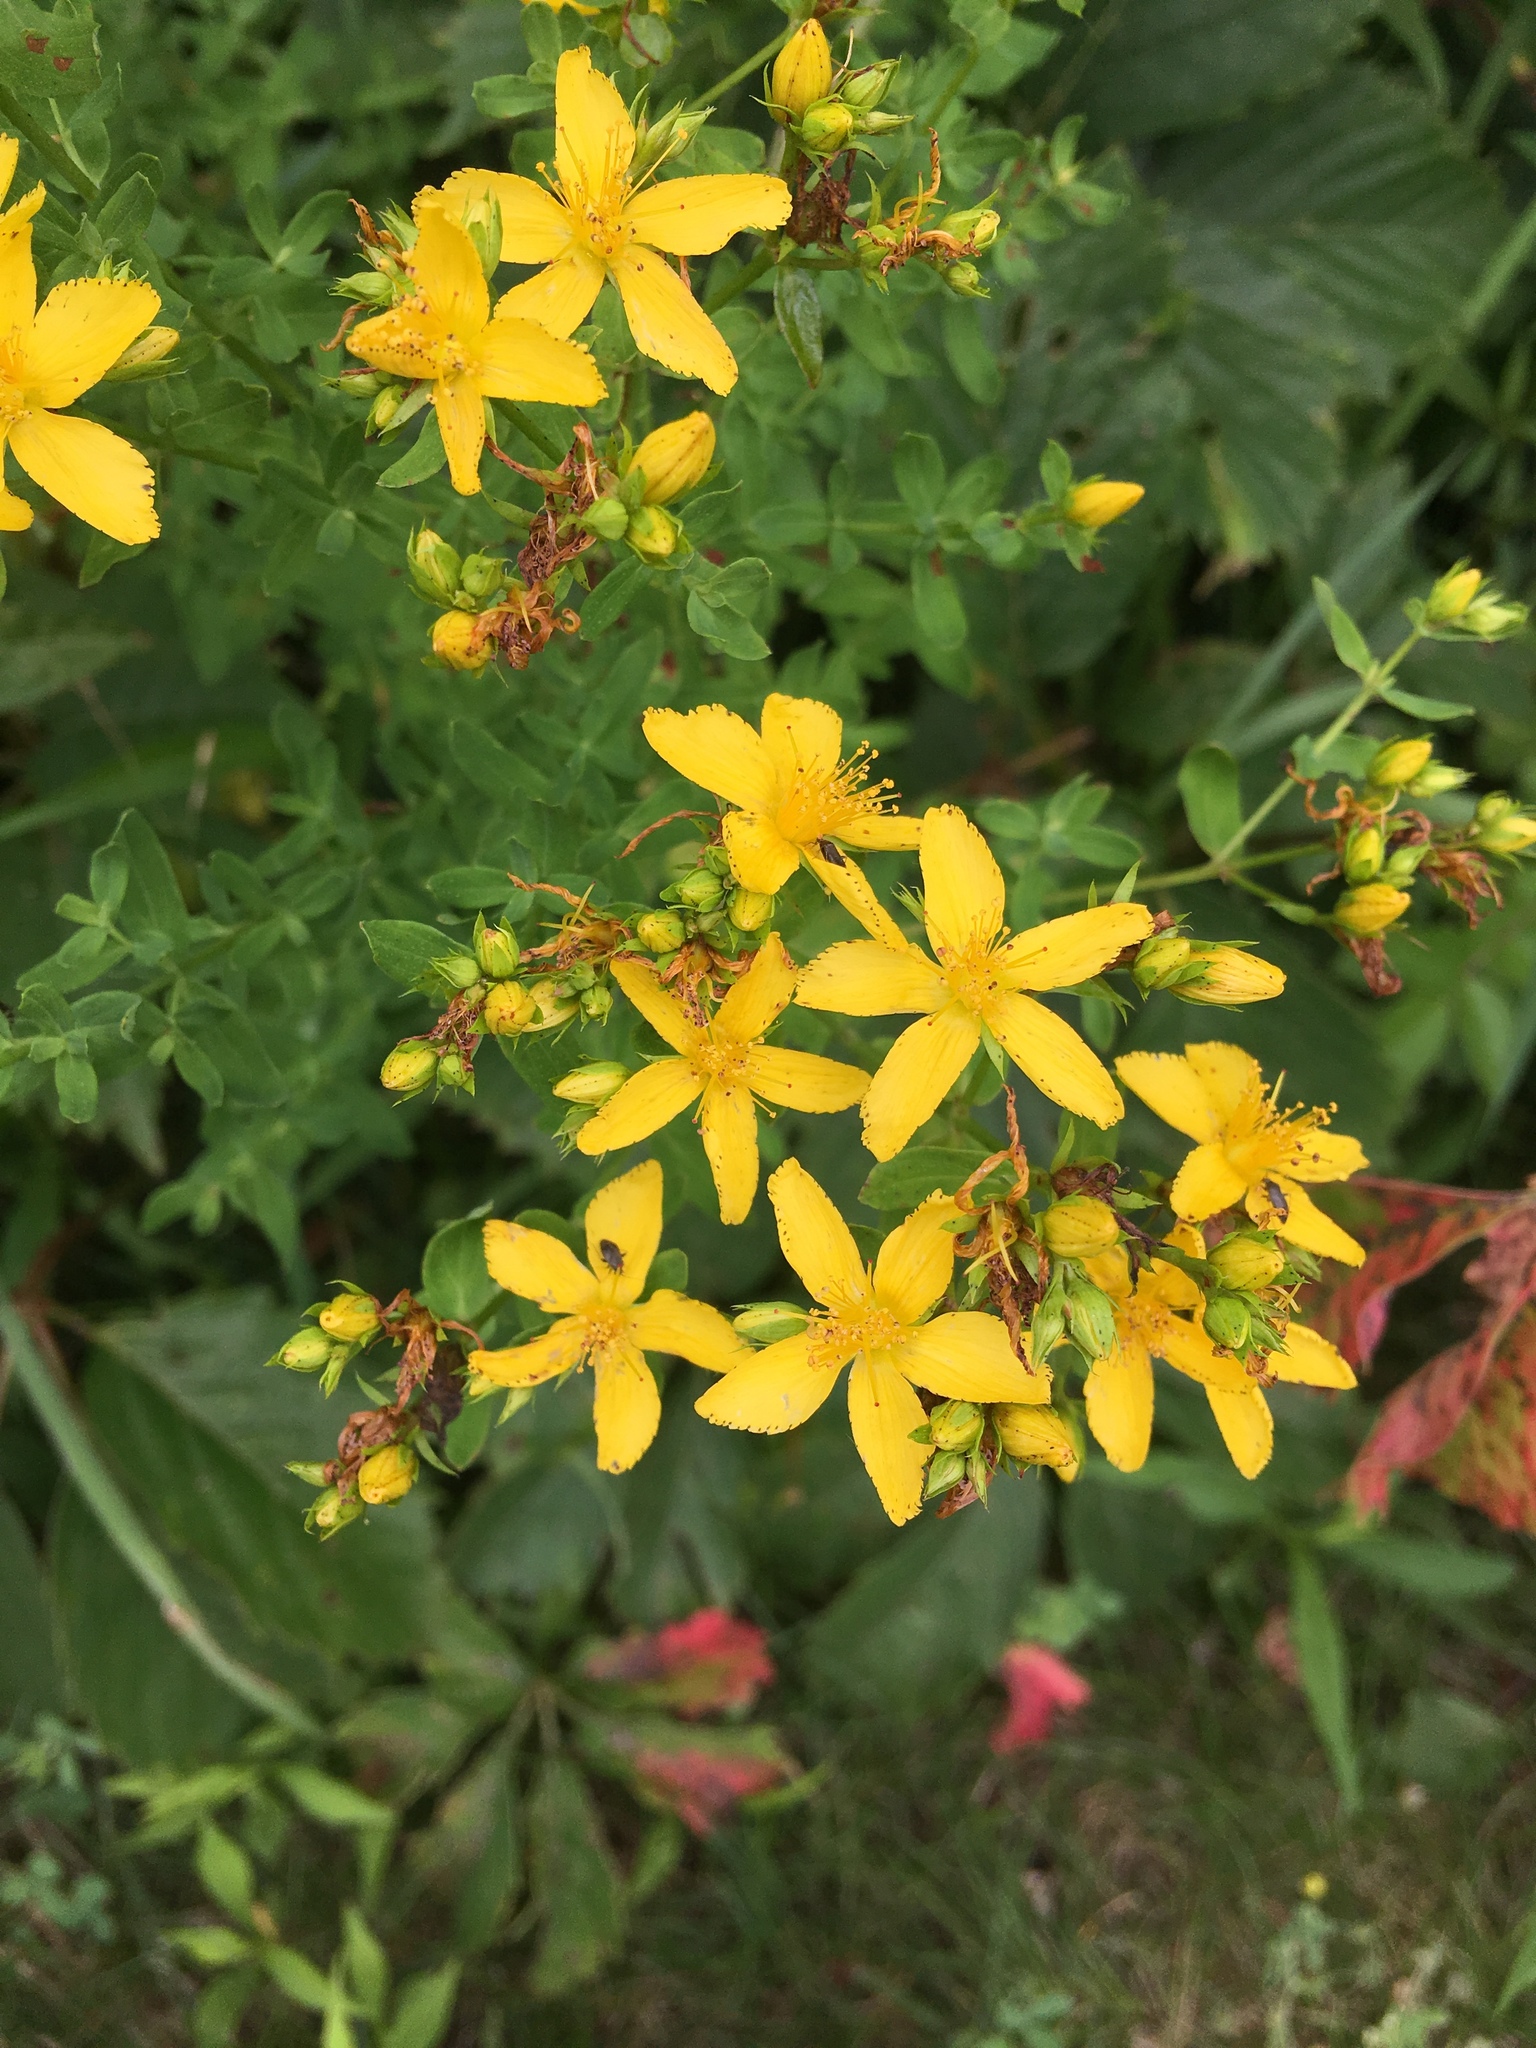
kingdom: Plantae
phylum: Tracheophyta
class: Magnoliopsida
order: Malpighiales
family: Hypericaceae
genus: Hypericum
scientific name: Hypericum perforatum
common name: Common st. johnswort
